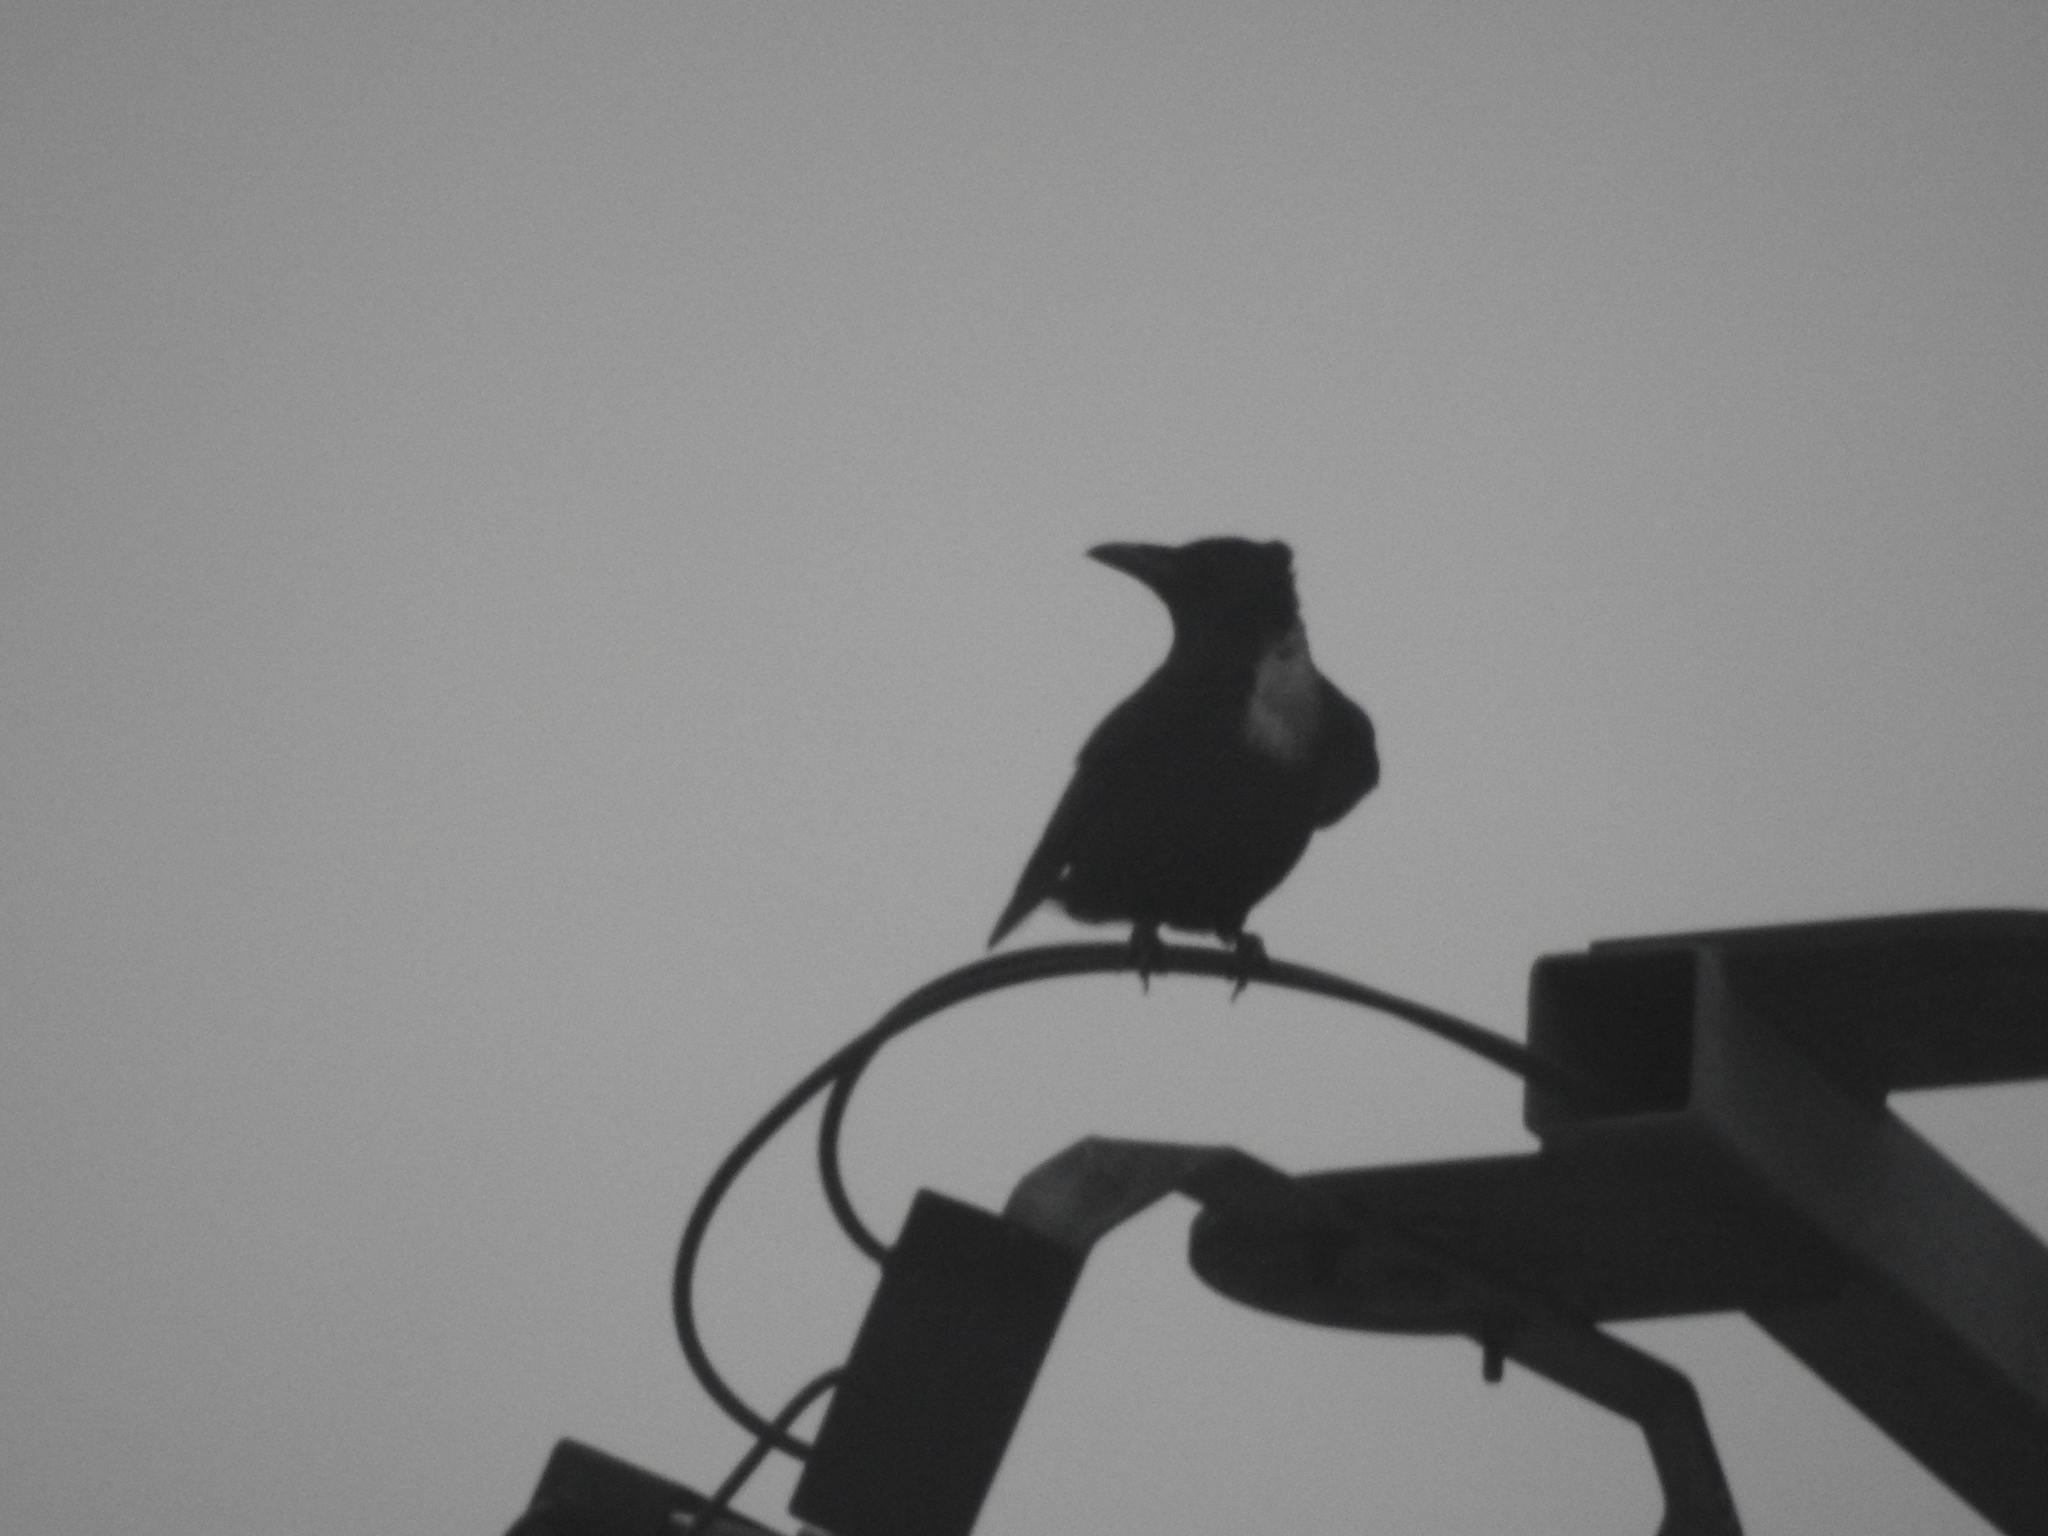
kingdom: Animalia
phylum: Chordata
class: Aves
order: Passeriformes
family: Corvidae
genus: Corvus
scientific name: Corvus corone
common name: Carrion crow
